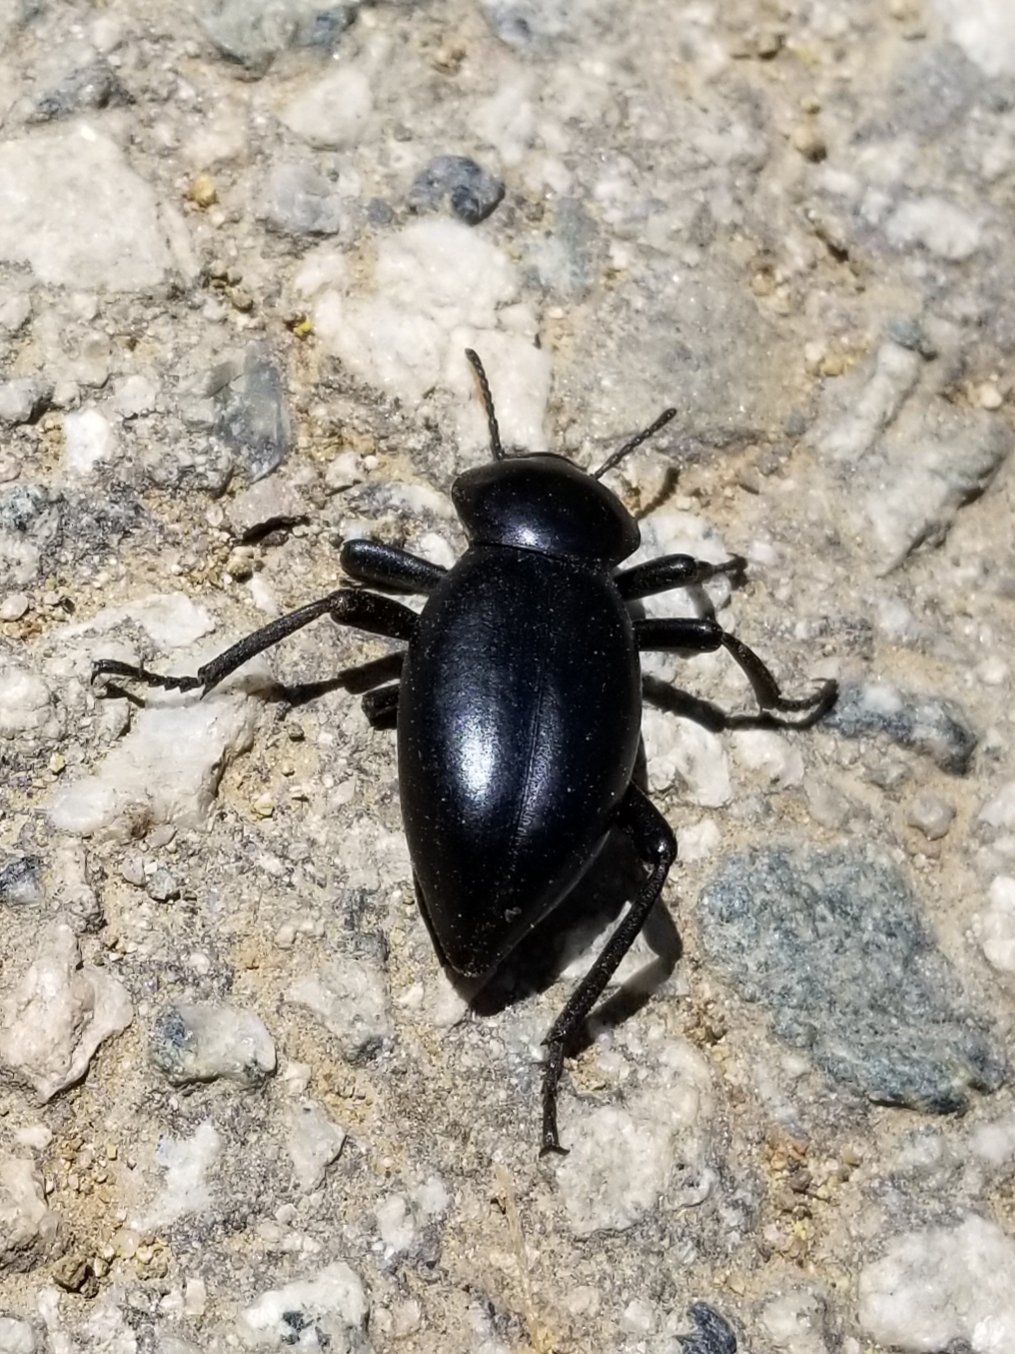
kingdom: Animalia
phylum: Arthropoda
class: Insecta
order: Coleoptera
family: Tenebrionidae
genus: Eleodes
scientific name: Eleodes acuticauda
